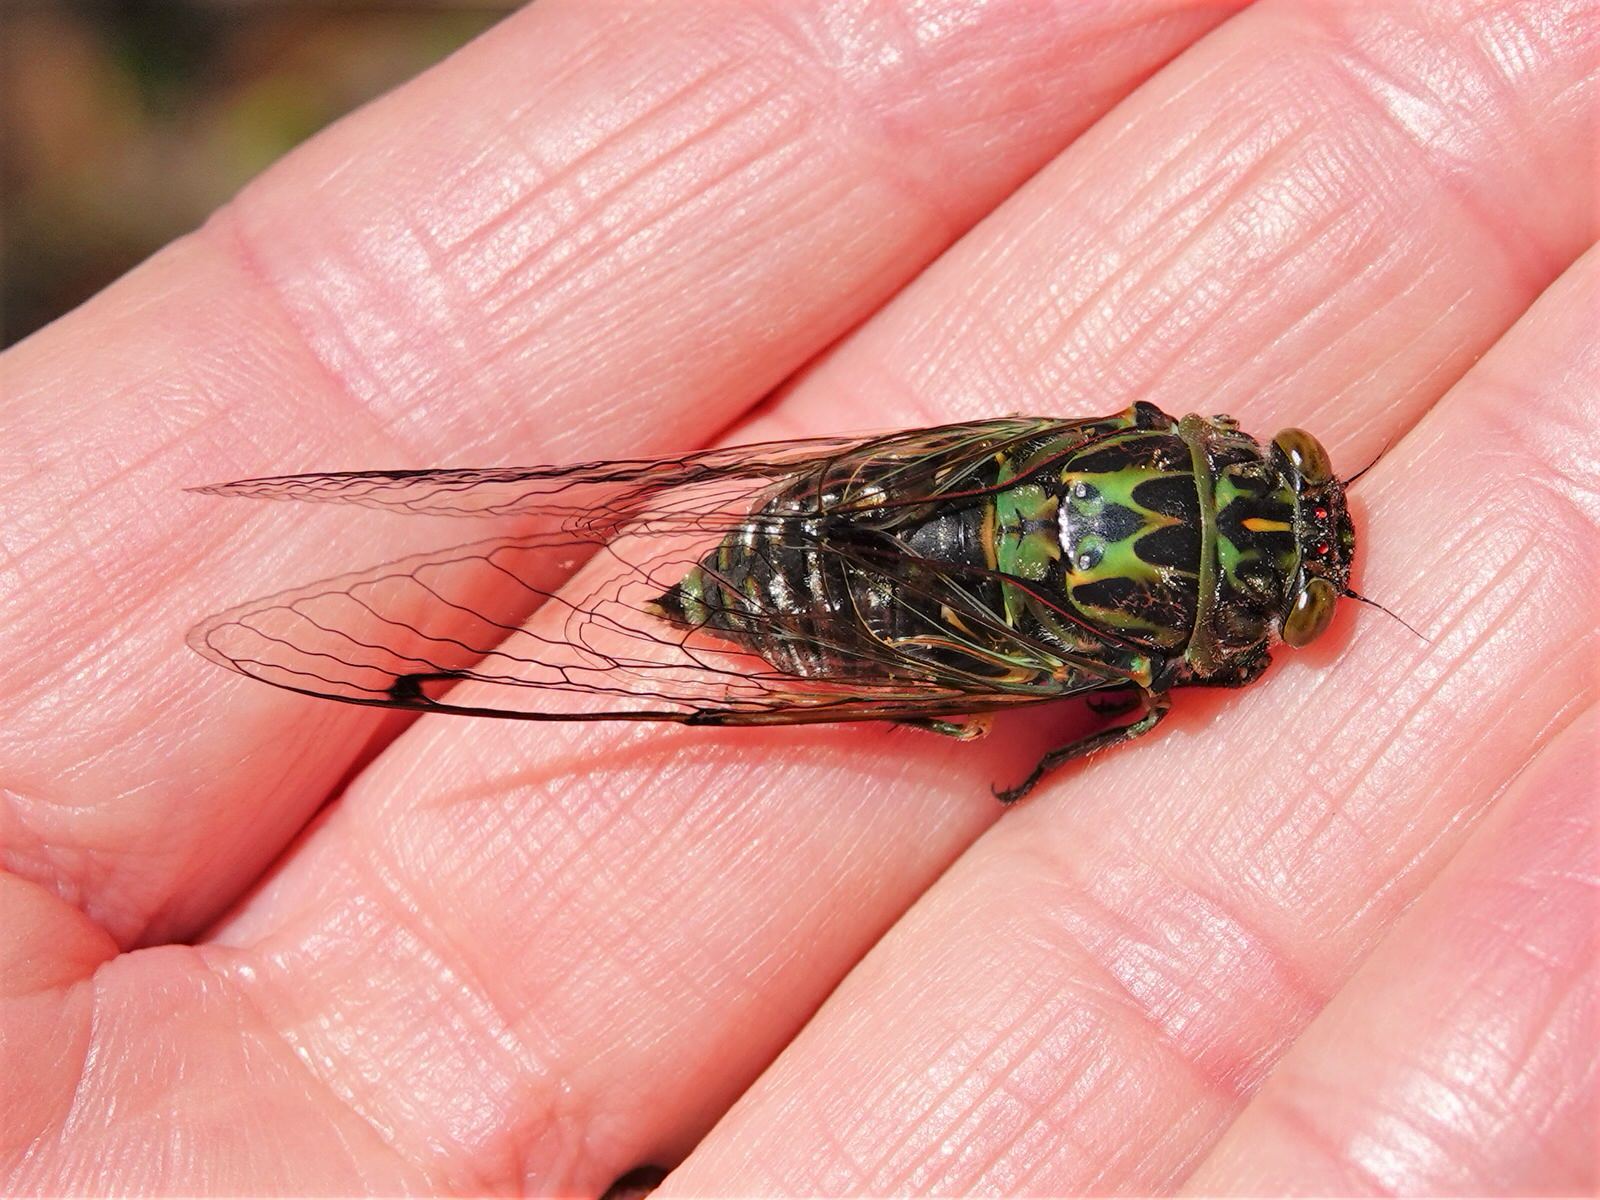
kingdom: Animalia
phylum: Arthropoda
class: Insecta
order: Hemiptera
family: Cicadidae
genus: Amphipsalta
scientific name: Amphipsalta zelandica
